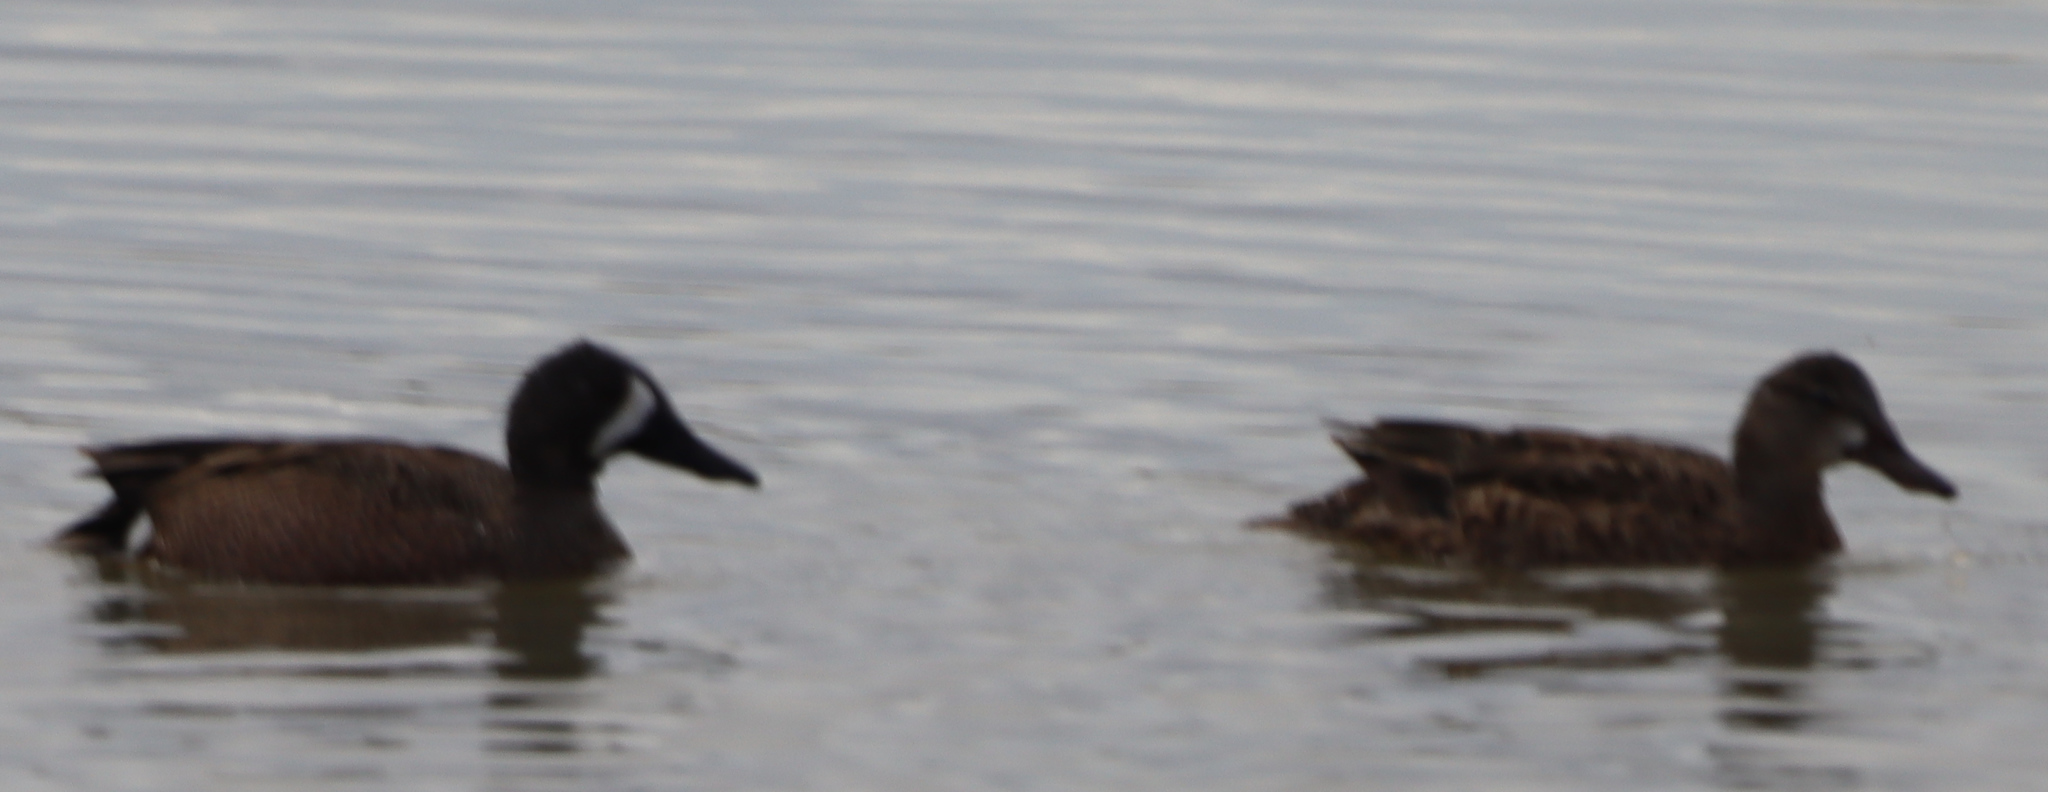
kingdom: Animalia
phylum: Chordata
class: Aves
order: Anseriformes
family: Anatidae
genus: Spatula
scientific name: Spatula discors
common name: Blue-winged teal
